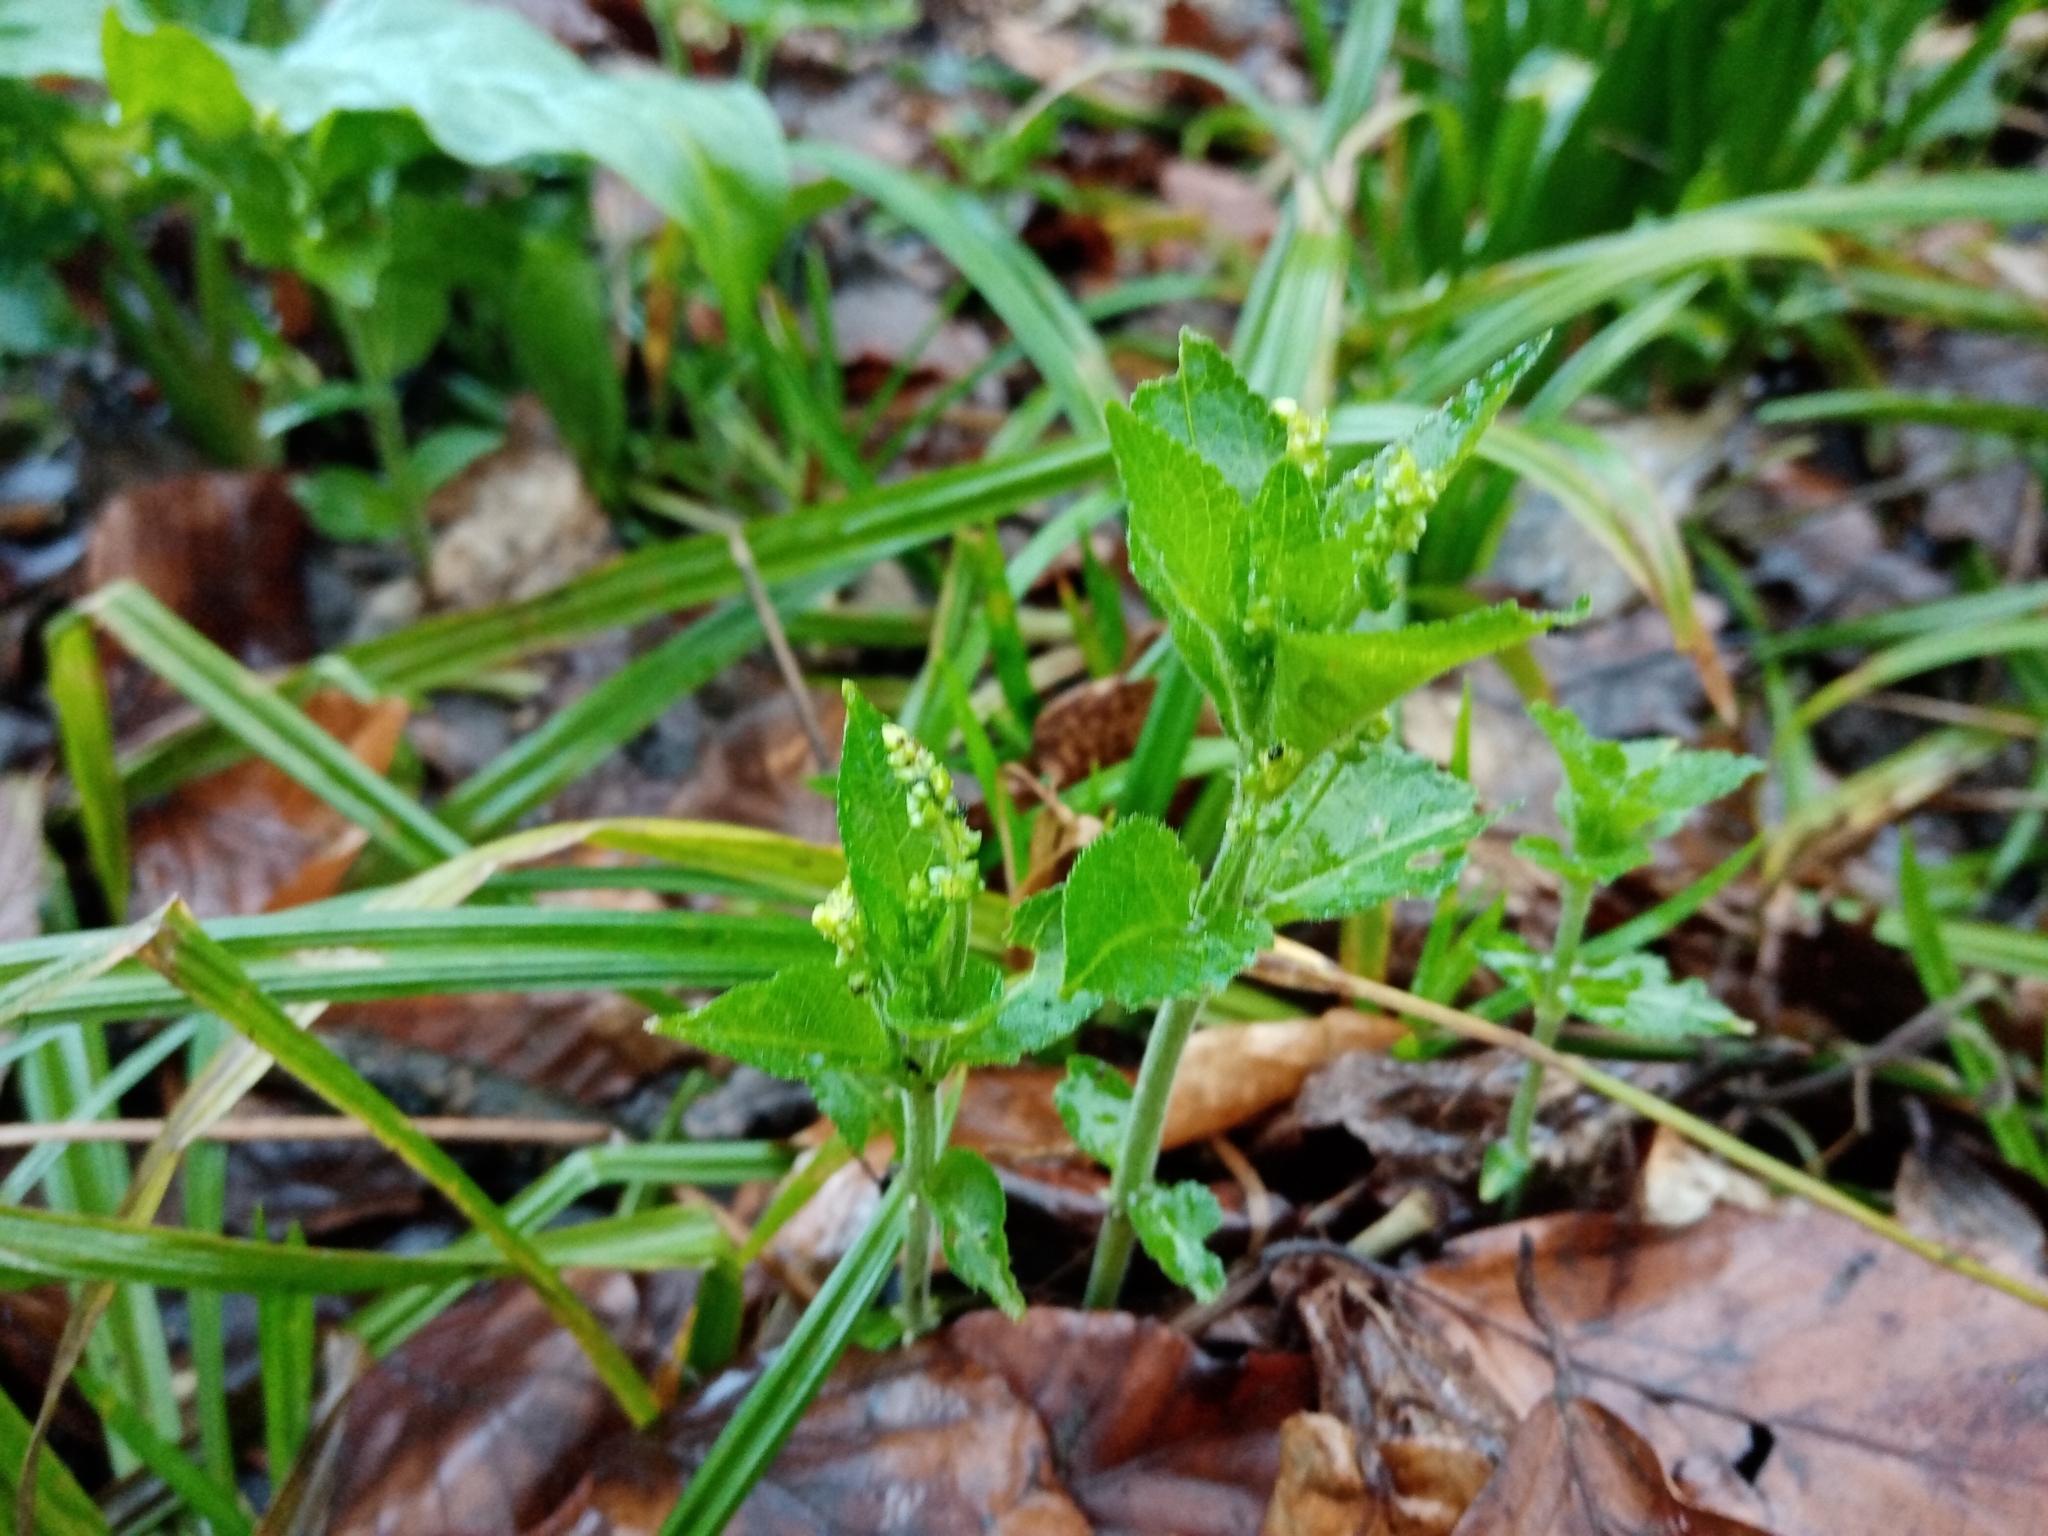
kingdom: Plantae
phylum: Tracheophyta
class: Magnoliopsida
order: Malpighiales
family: Euphorbiaceae
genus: Mercurialis
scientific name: Mercurialis perennis
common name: Dog mercury
